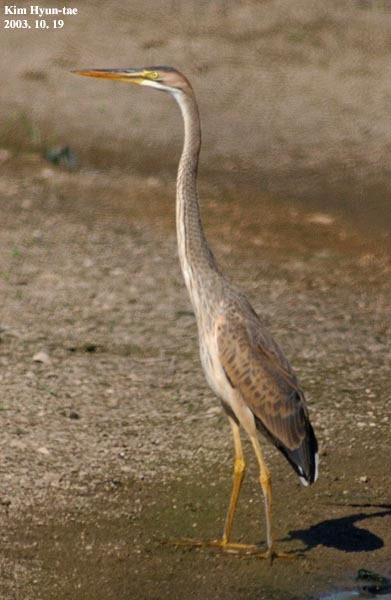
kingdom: Animalia
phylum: Chordata
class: Aves
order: Pelecaniformes
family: Ardeidae
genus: Ardea
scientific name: Ardea purpurea
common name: Purple heron
